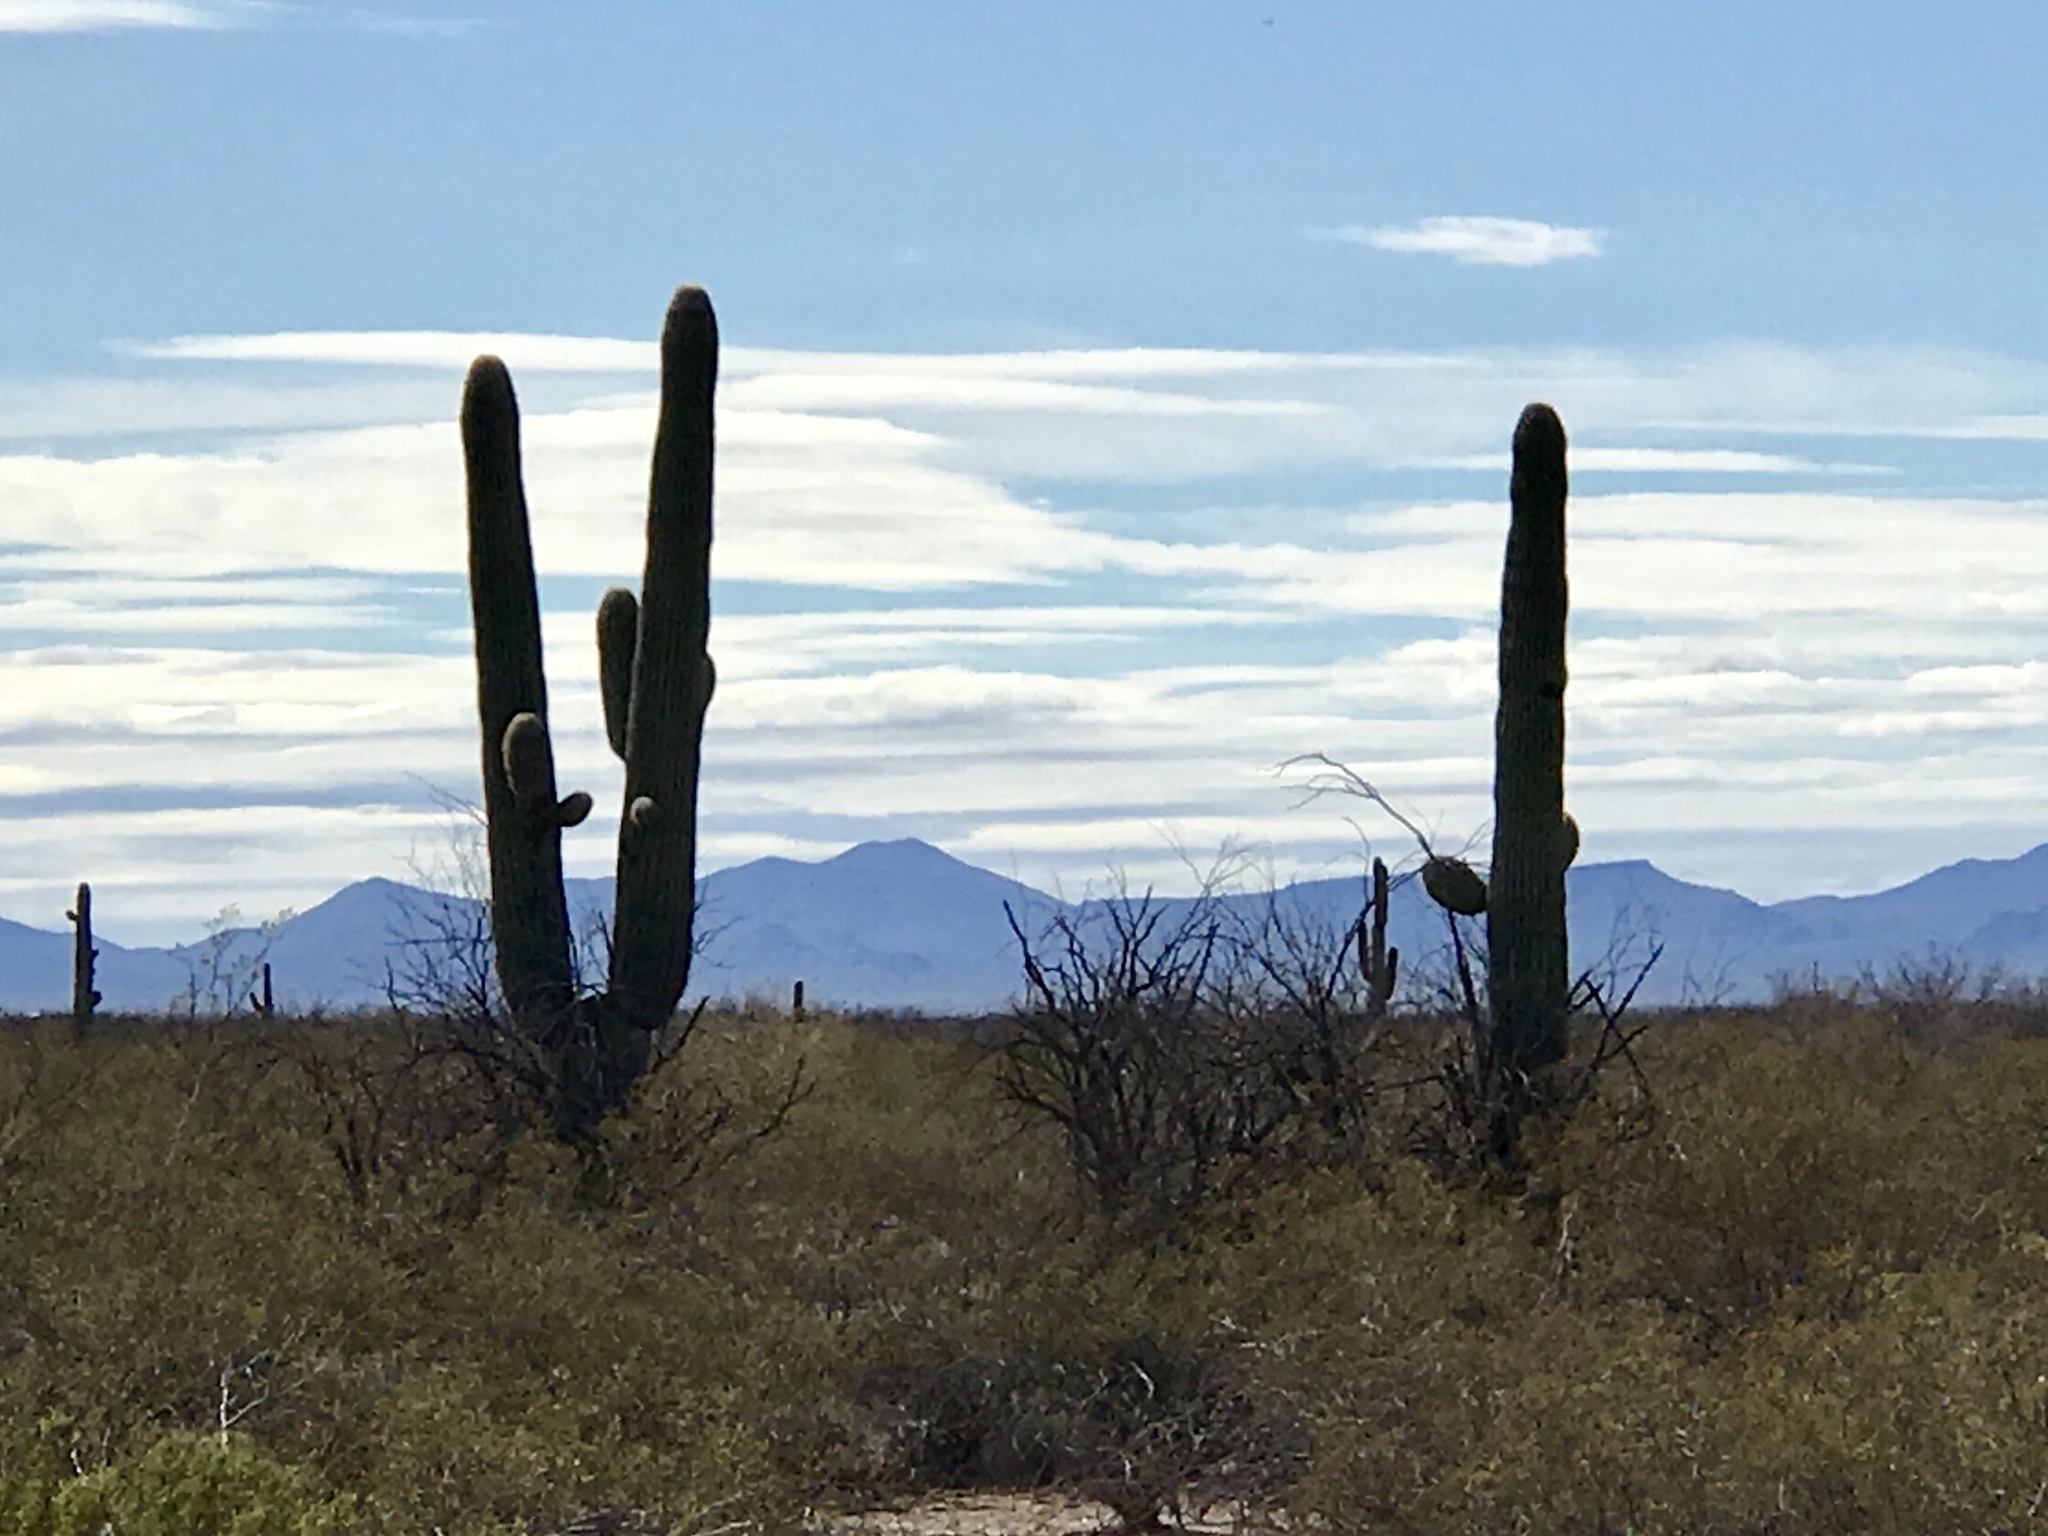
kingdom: Plantae
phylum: Tracheophyta
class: Magnoliopsida
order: Caryophyllales
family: Cactaceae
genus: Carnegiea
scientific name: Carnegiea gigantea
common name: Saguaro
